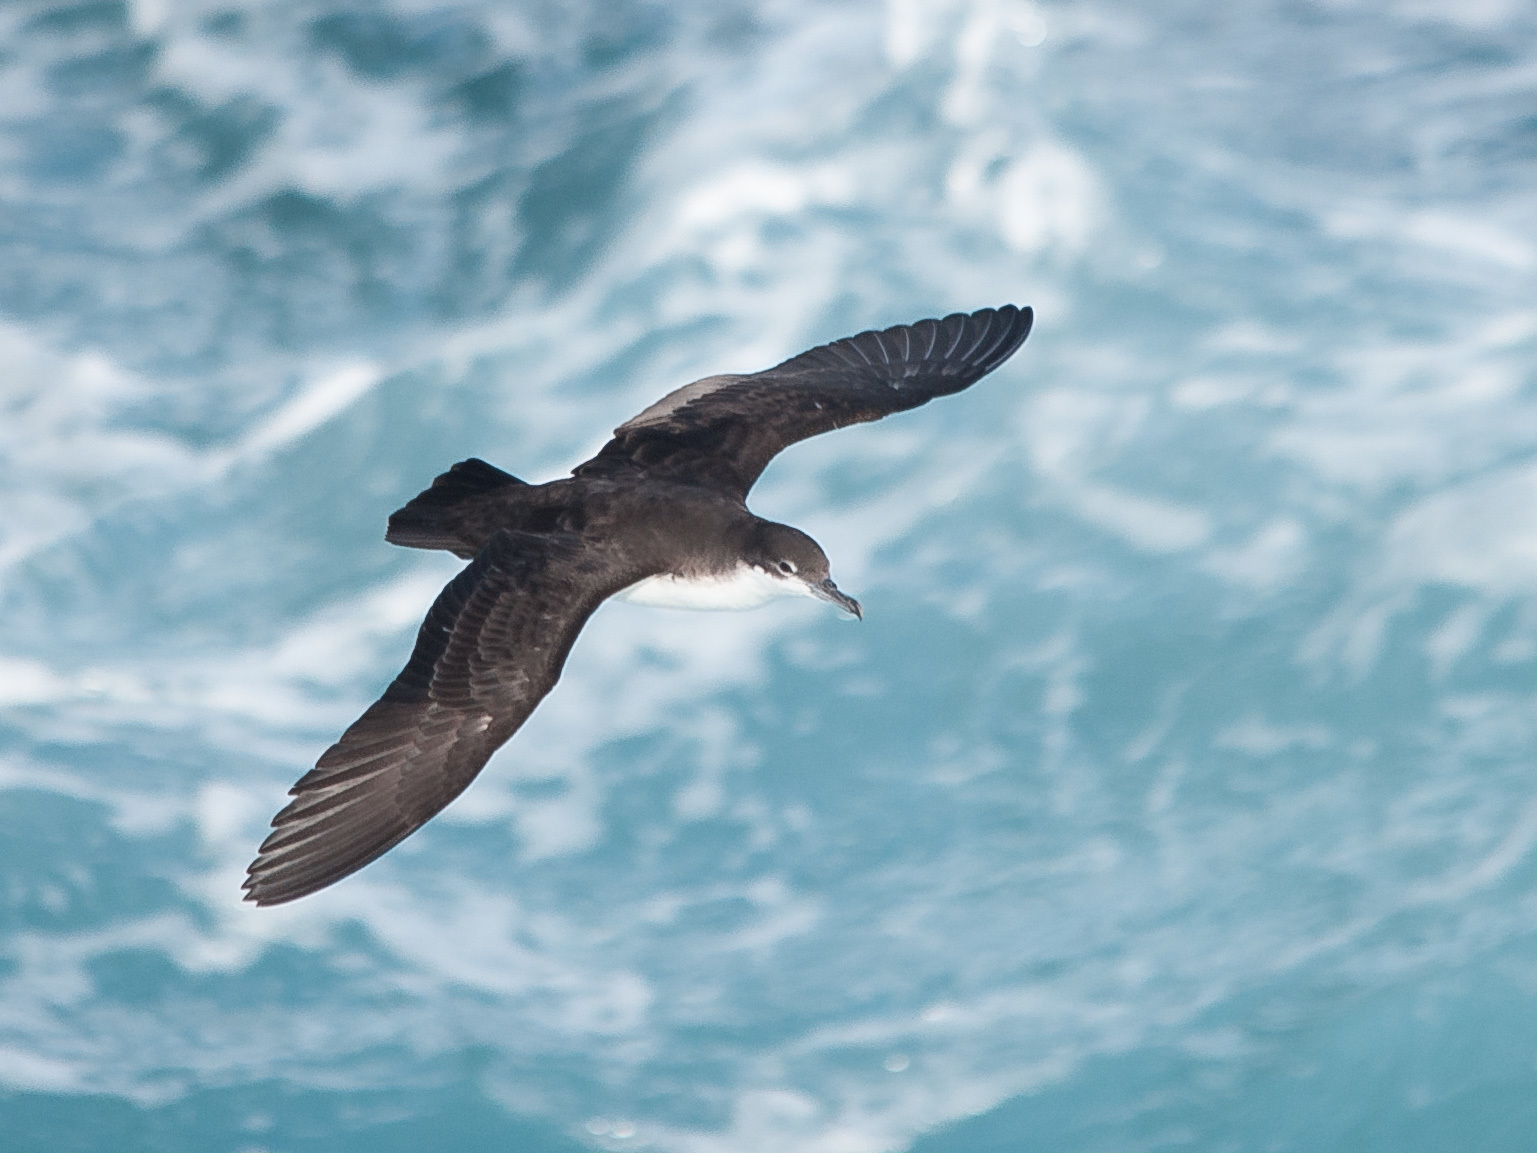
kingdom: Animalia
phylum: Chordata
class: Aves
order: Procellariiformes
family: Procellariidae
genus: Puffinus
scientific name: Puffinus subalaris
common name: Galapagos shearwater
